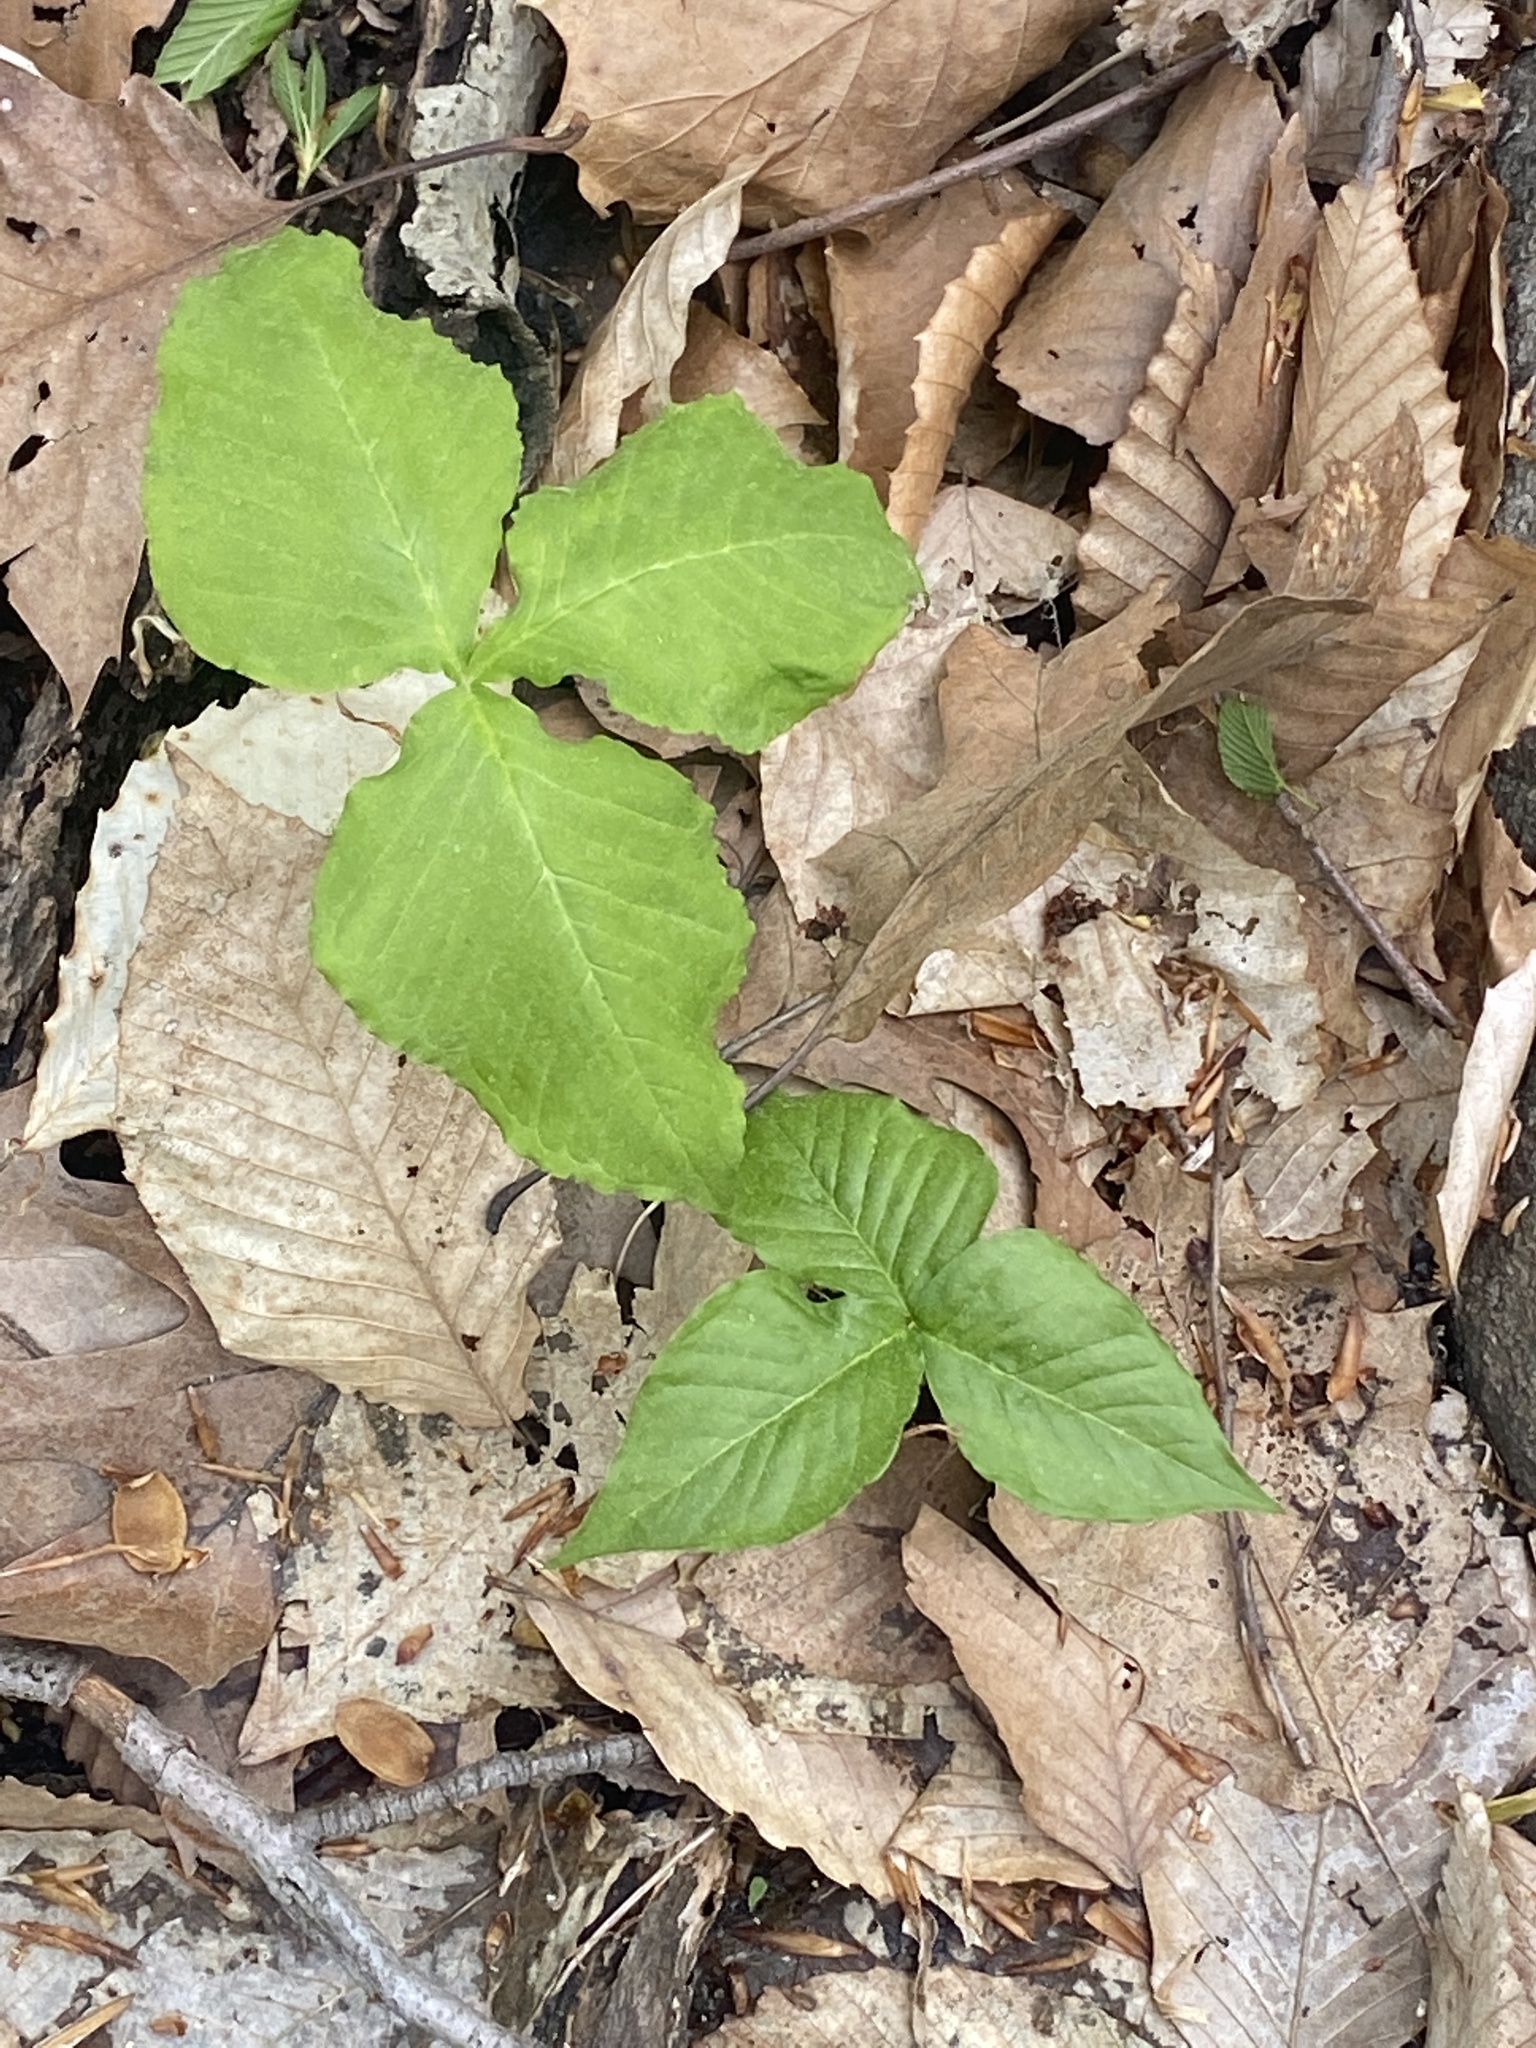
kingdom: Plantae
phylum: Tracheophyta
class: Liliopsida
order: Alismatales
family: Araceae
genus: Arisaema
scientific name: Arisaema triphyllum
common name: Jack-in-the-pulpit
